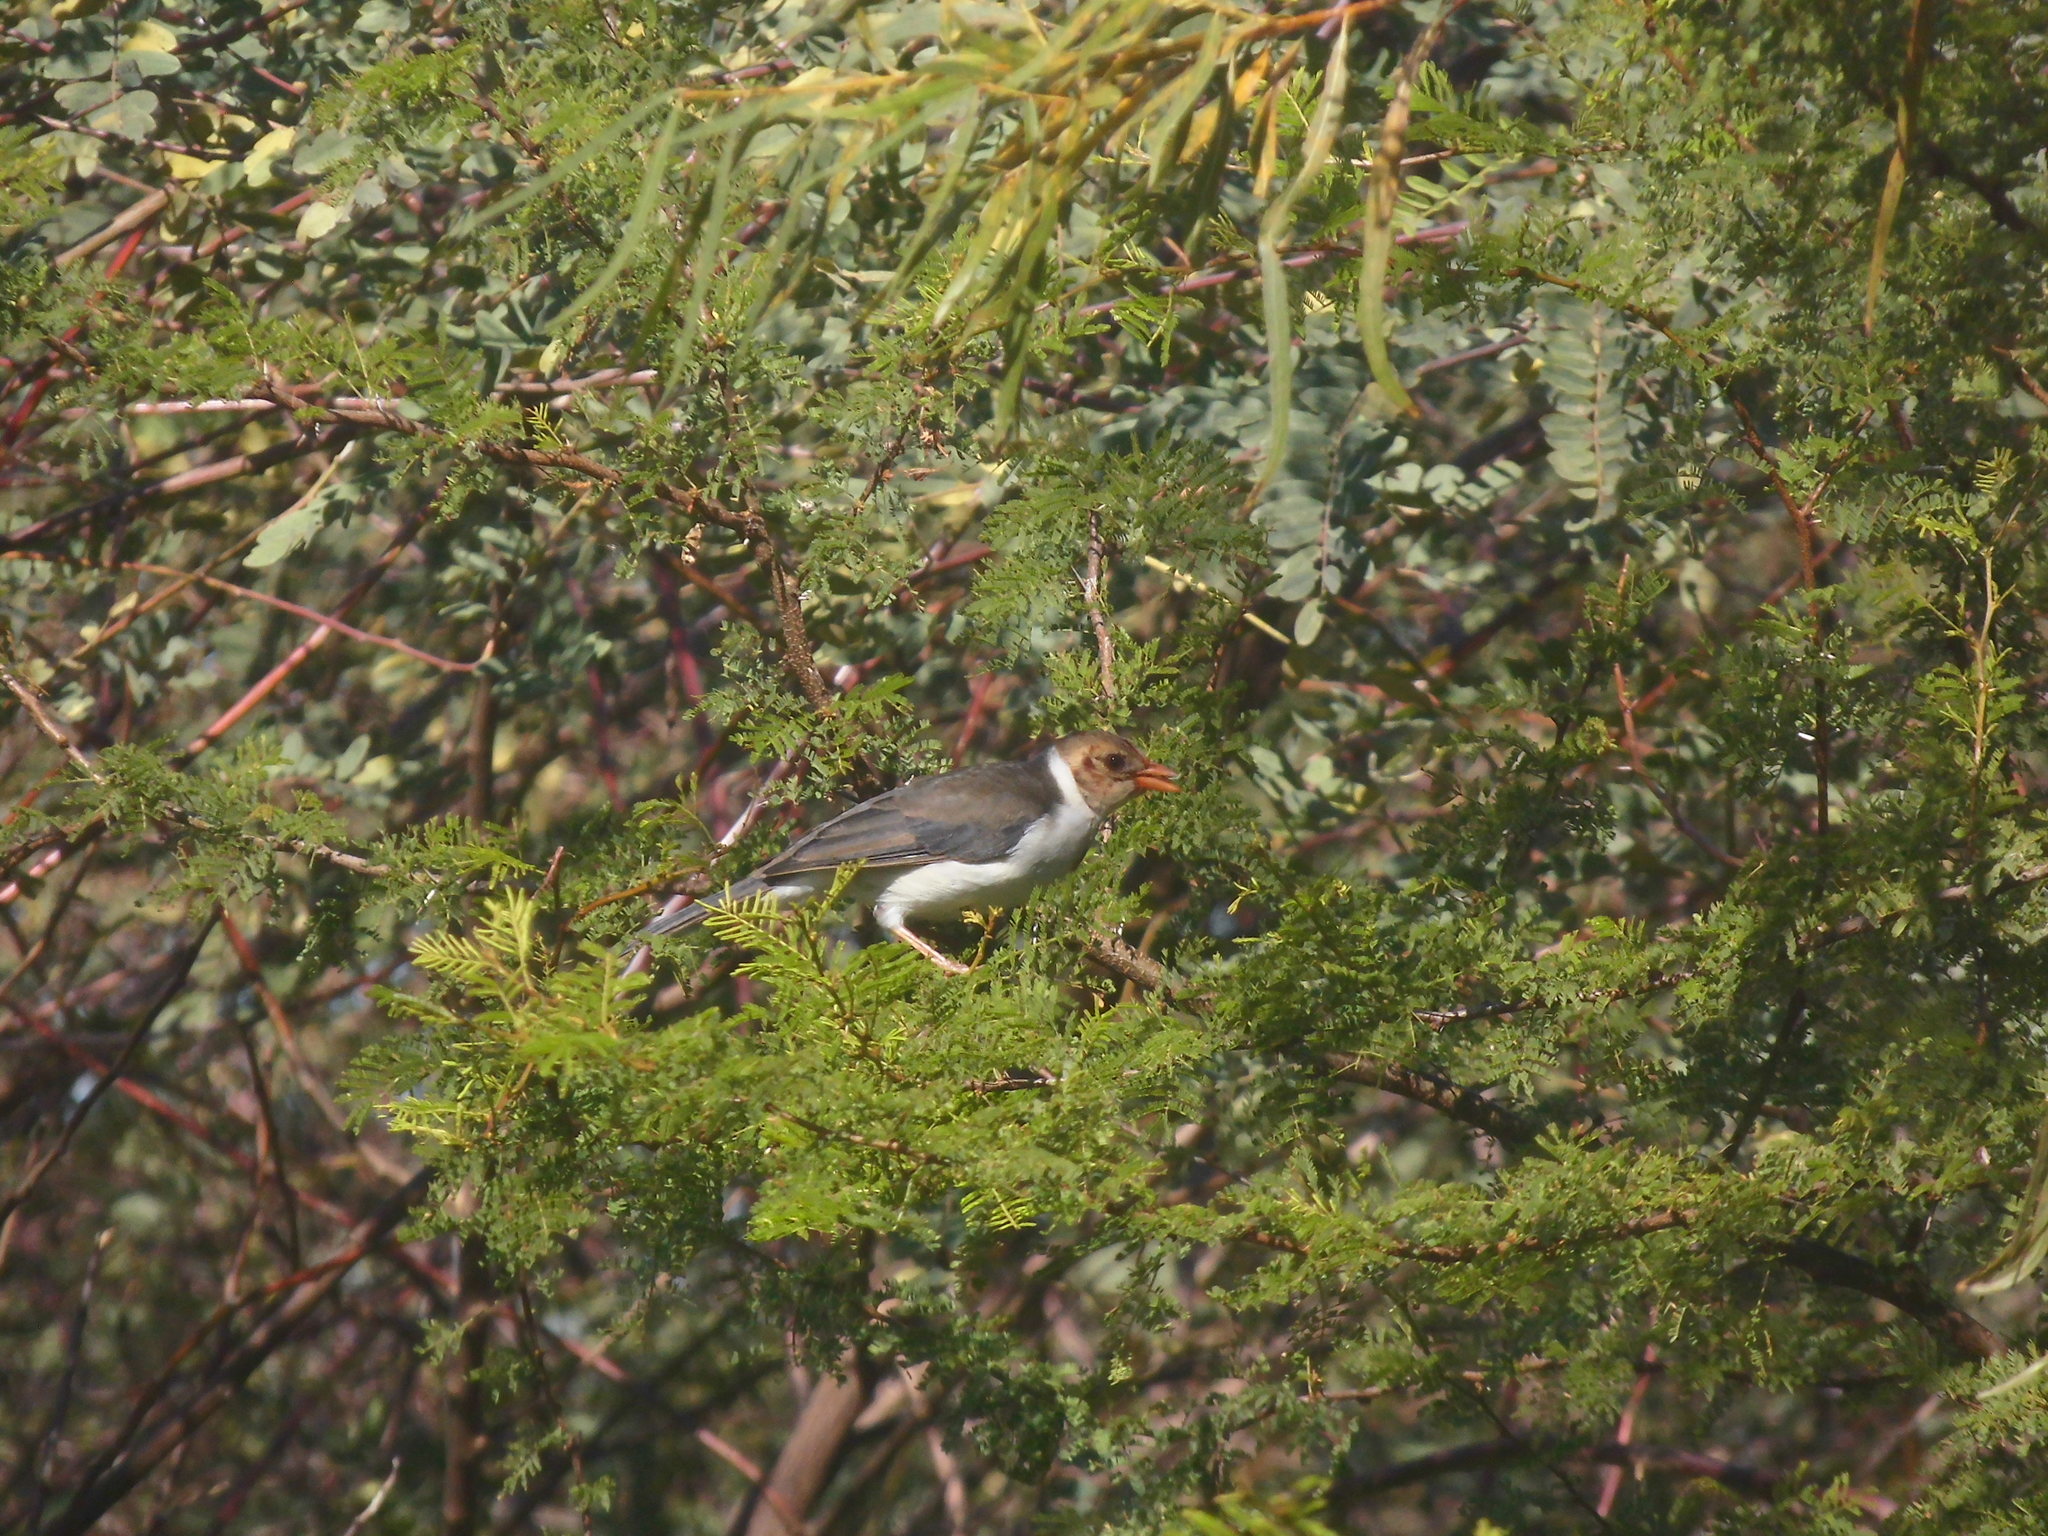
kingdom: Animalia
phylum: Chordata
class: Aves
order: Passeriformes
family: Thraupidae
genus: Paroaria
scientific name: Paroaria capitata
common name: Yellow-billed cardinal
